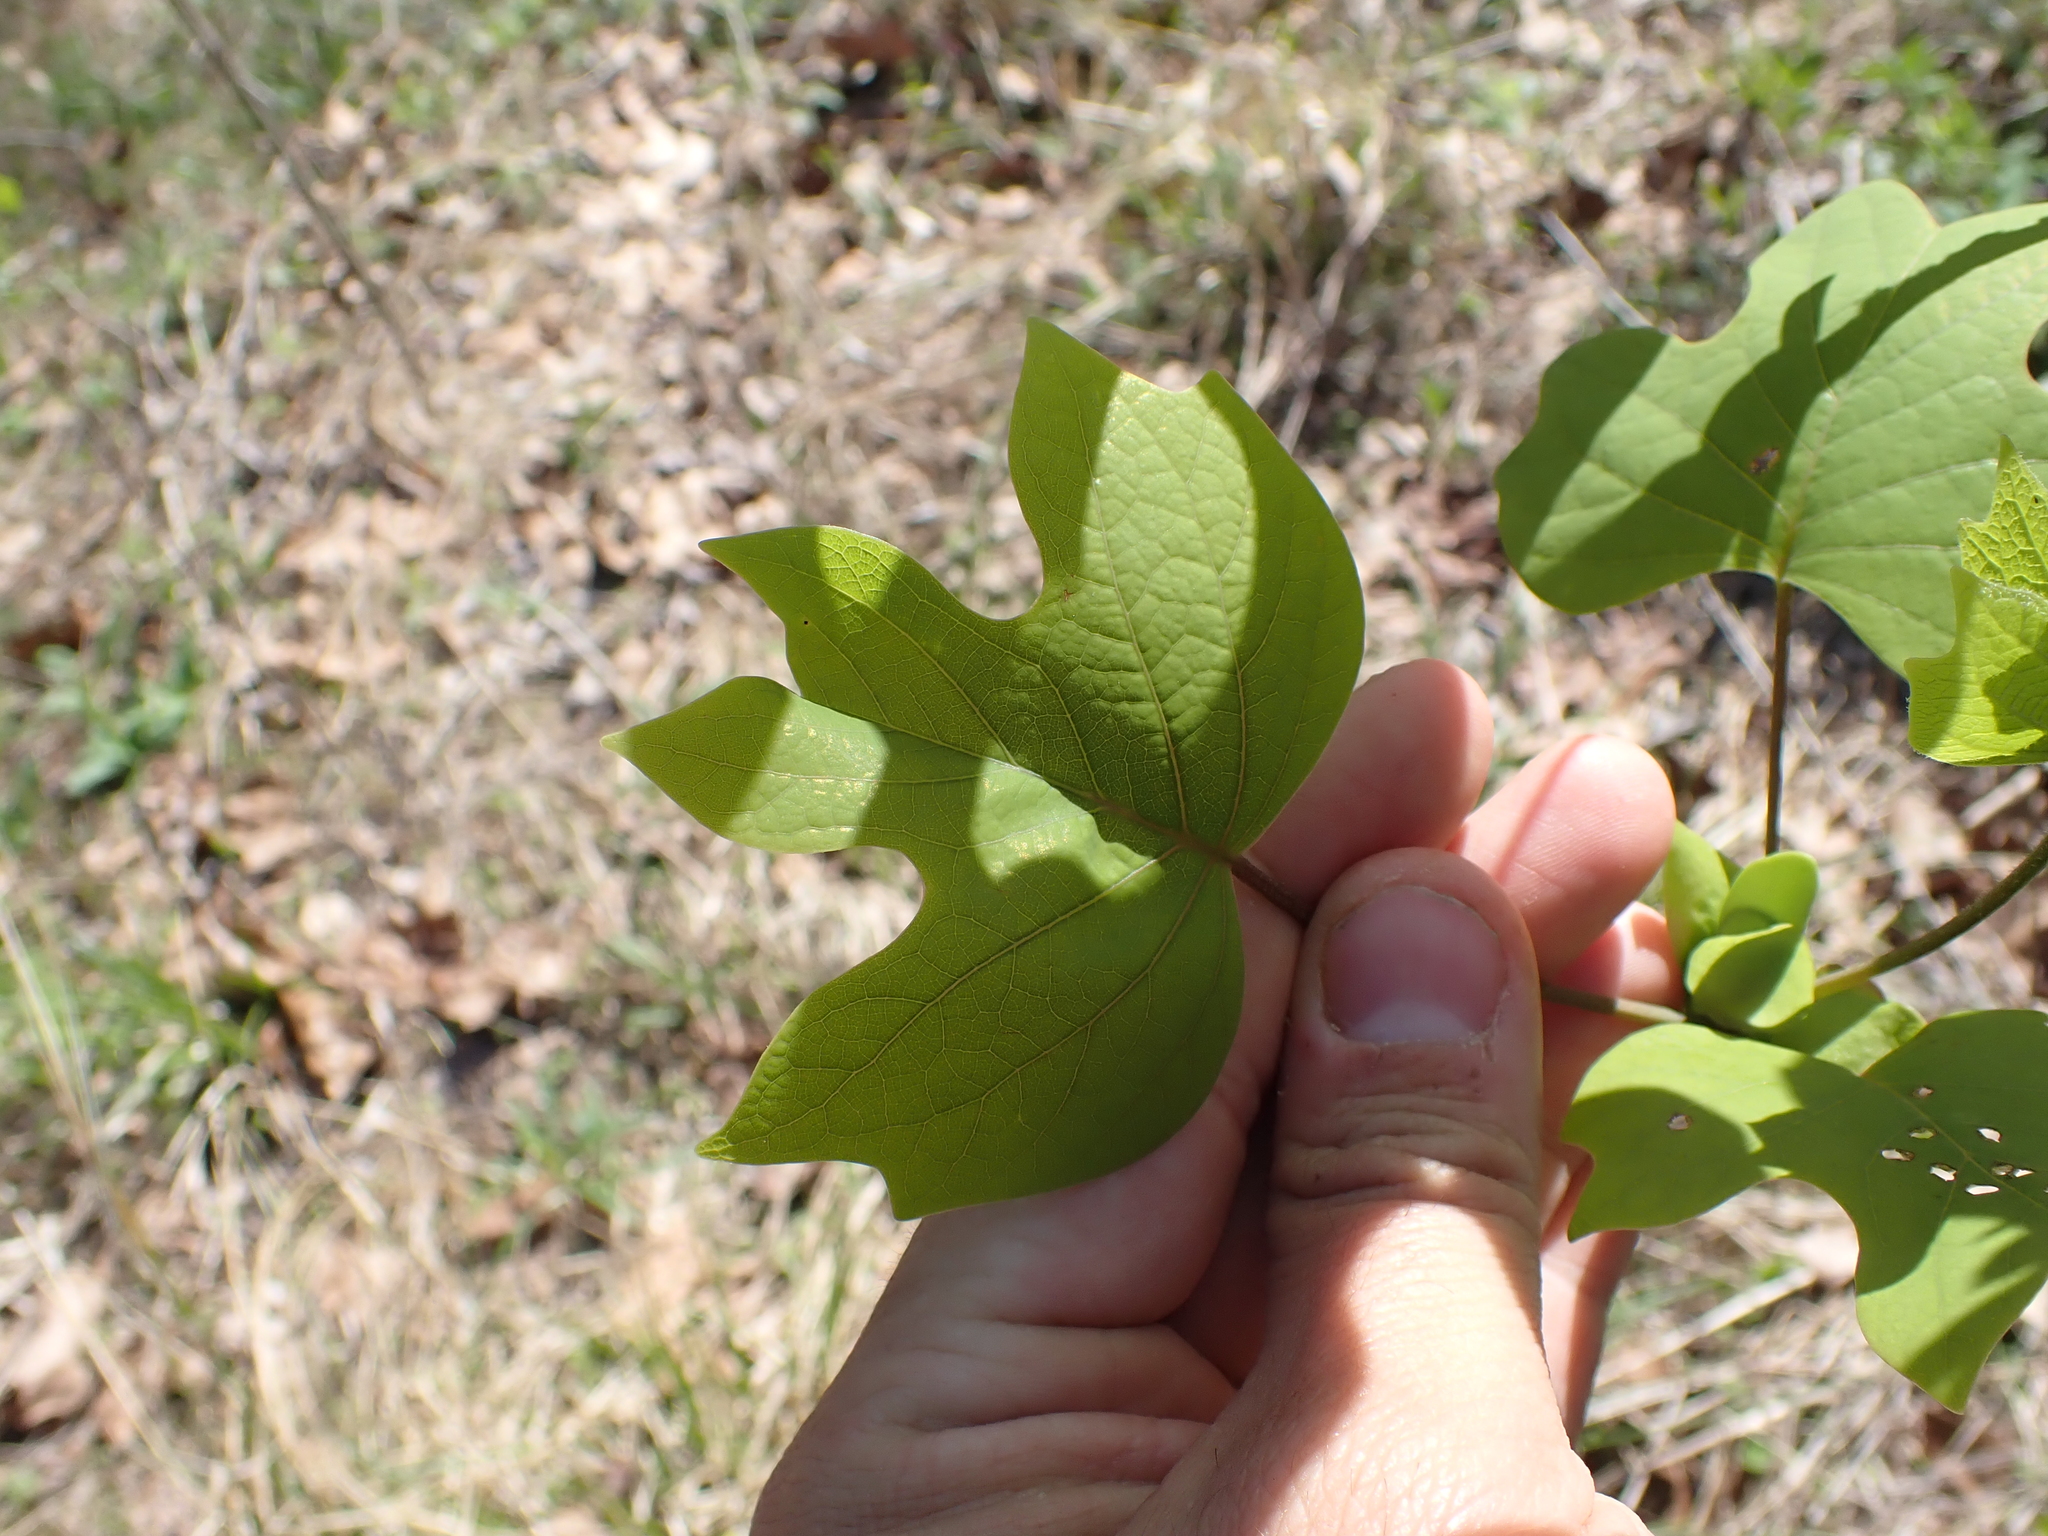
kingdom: Plantae
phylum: Tracheophyta
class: Magnoliopsida
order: Magnoliales
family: Magnoliaceae
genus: Liriodendron
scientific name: Liriodendron tulipifera
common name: Tulip tree
